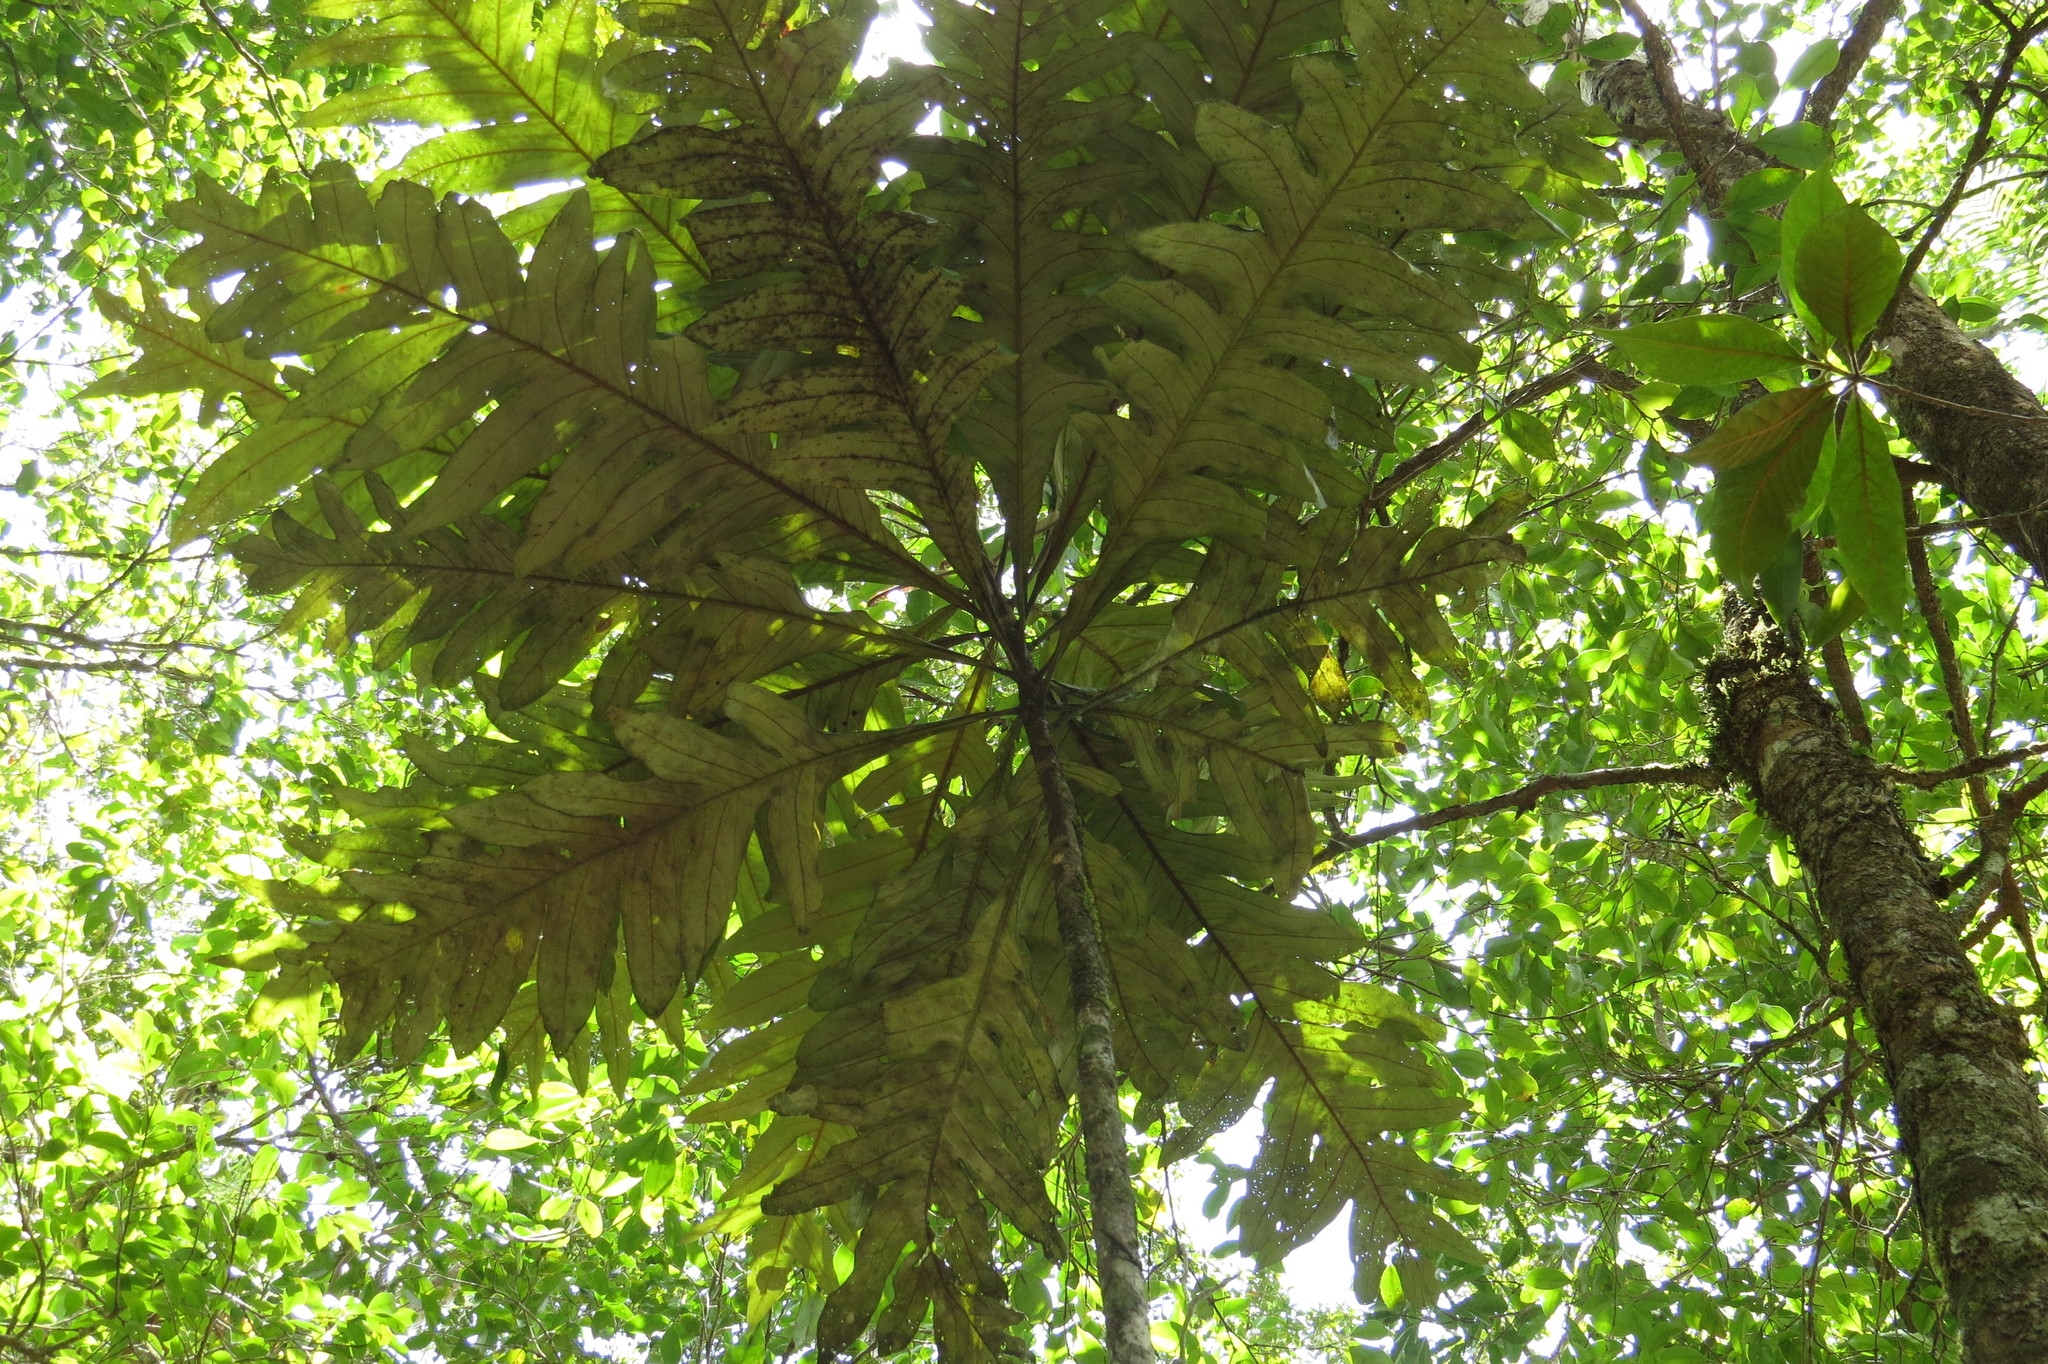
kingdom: Plantae
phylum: Tracheophyta
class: Magnoliopsida
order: Proteales
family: Proteaceae
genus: Musgravea
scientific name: Musgravea heterophylla
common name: Briar oak
